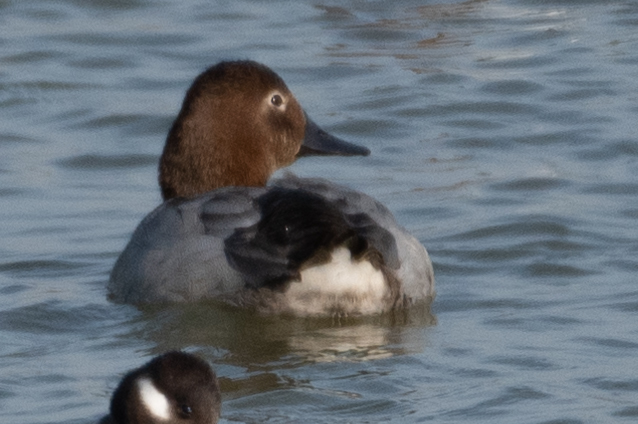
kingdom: Animalia
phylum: Chordata
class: Aves
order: Anseriformes
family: Anatidae
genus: Aythya
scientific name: Aythya valisineria
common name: Canvasback
